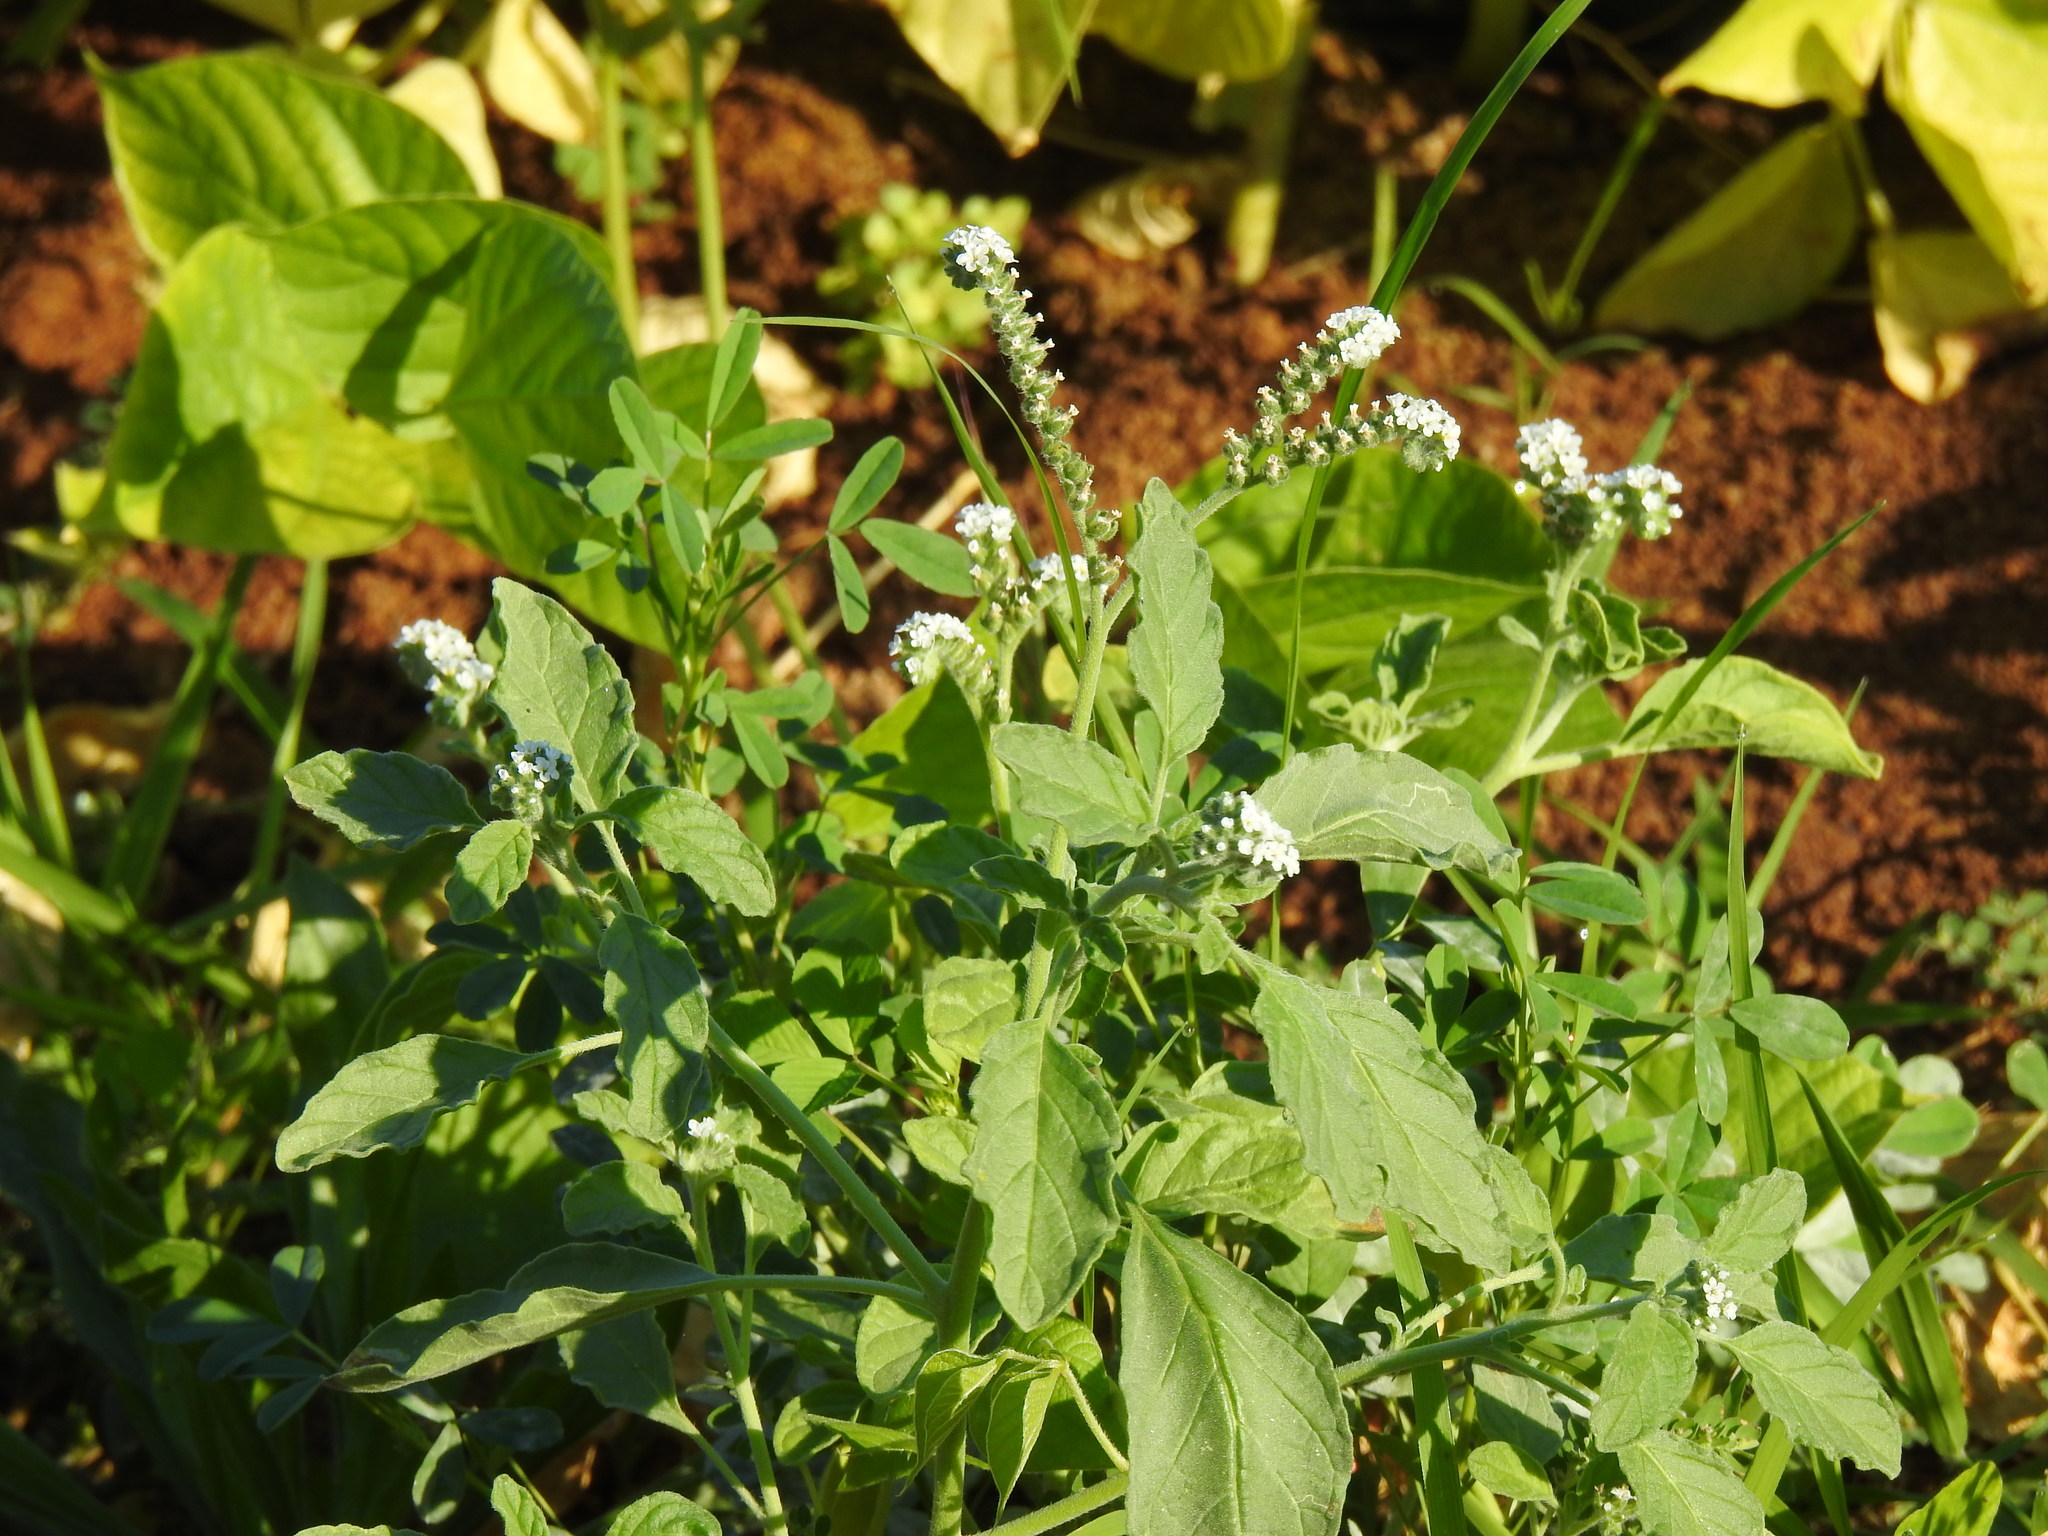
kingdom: Plantae
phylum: Tracheophyta
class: Magnoliopsida
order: Boraginales
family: Heliotropiaceae
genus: Heliotropium
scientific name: Heliotropium europaeum
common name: European heliotrope
